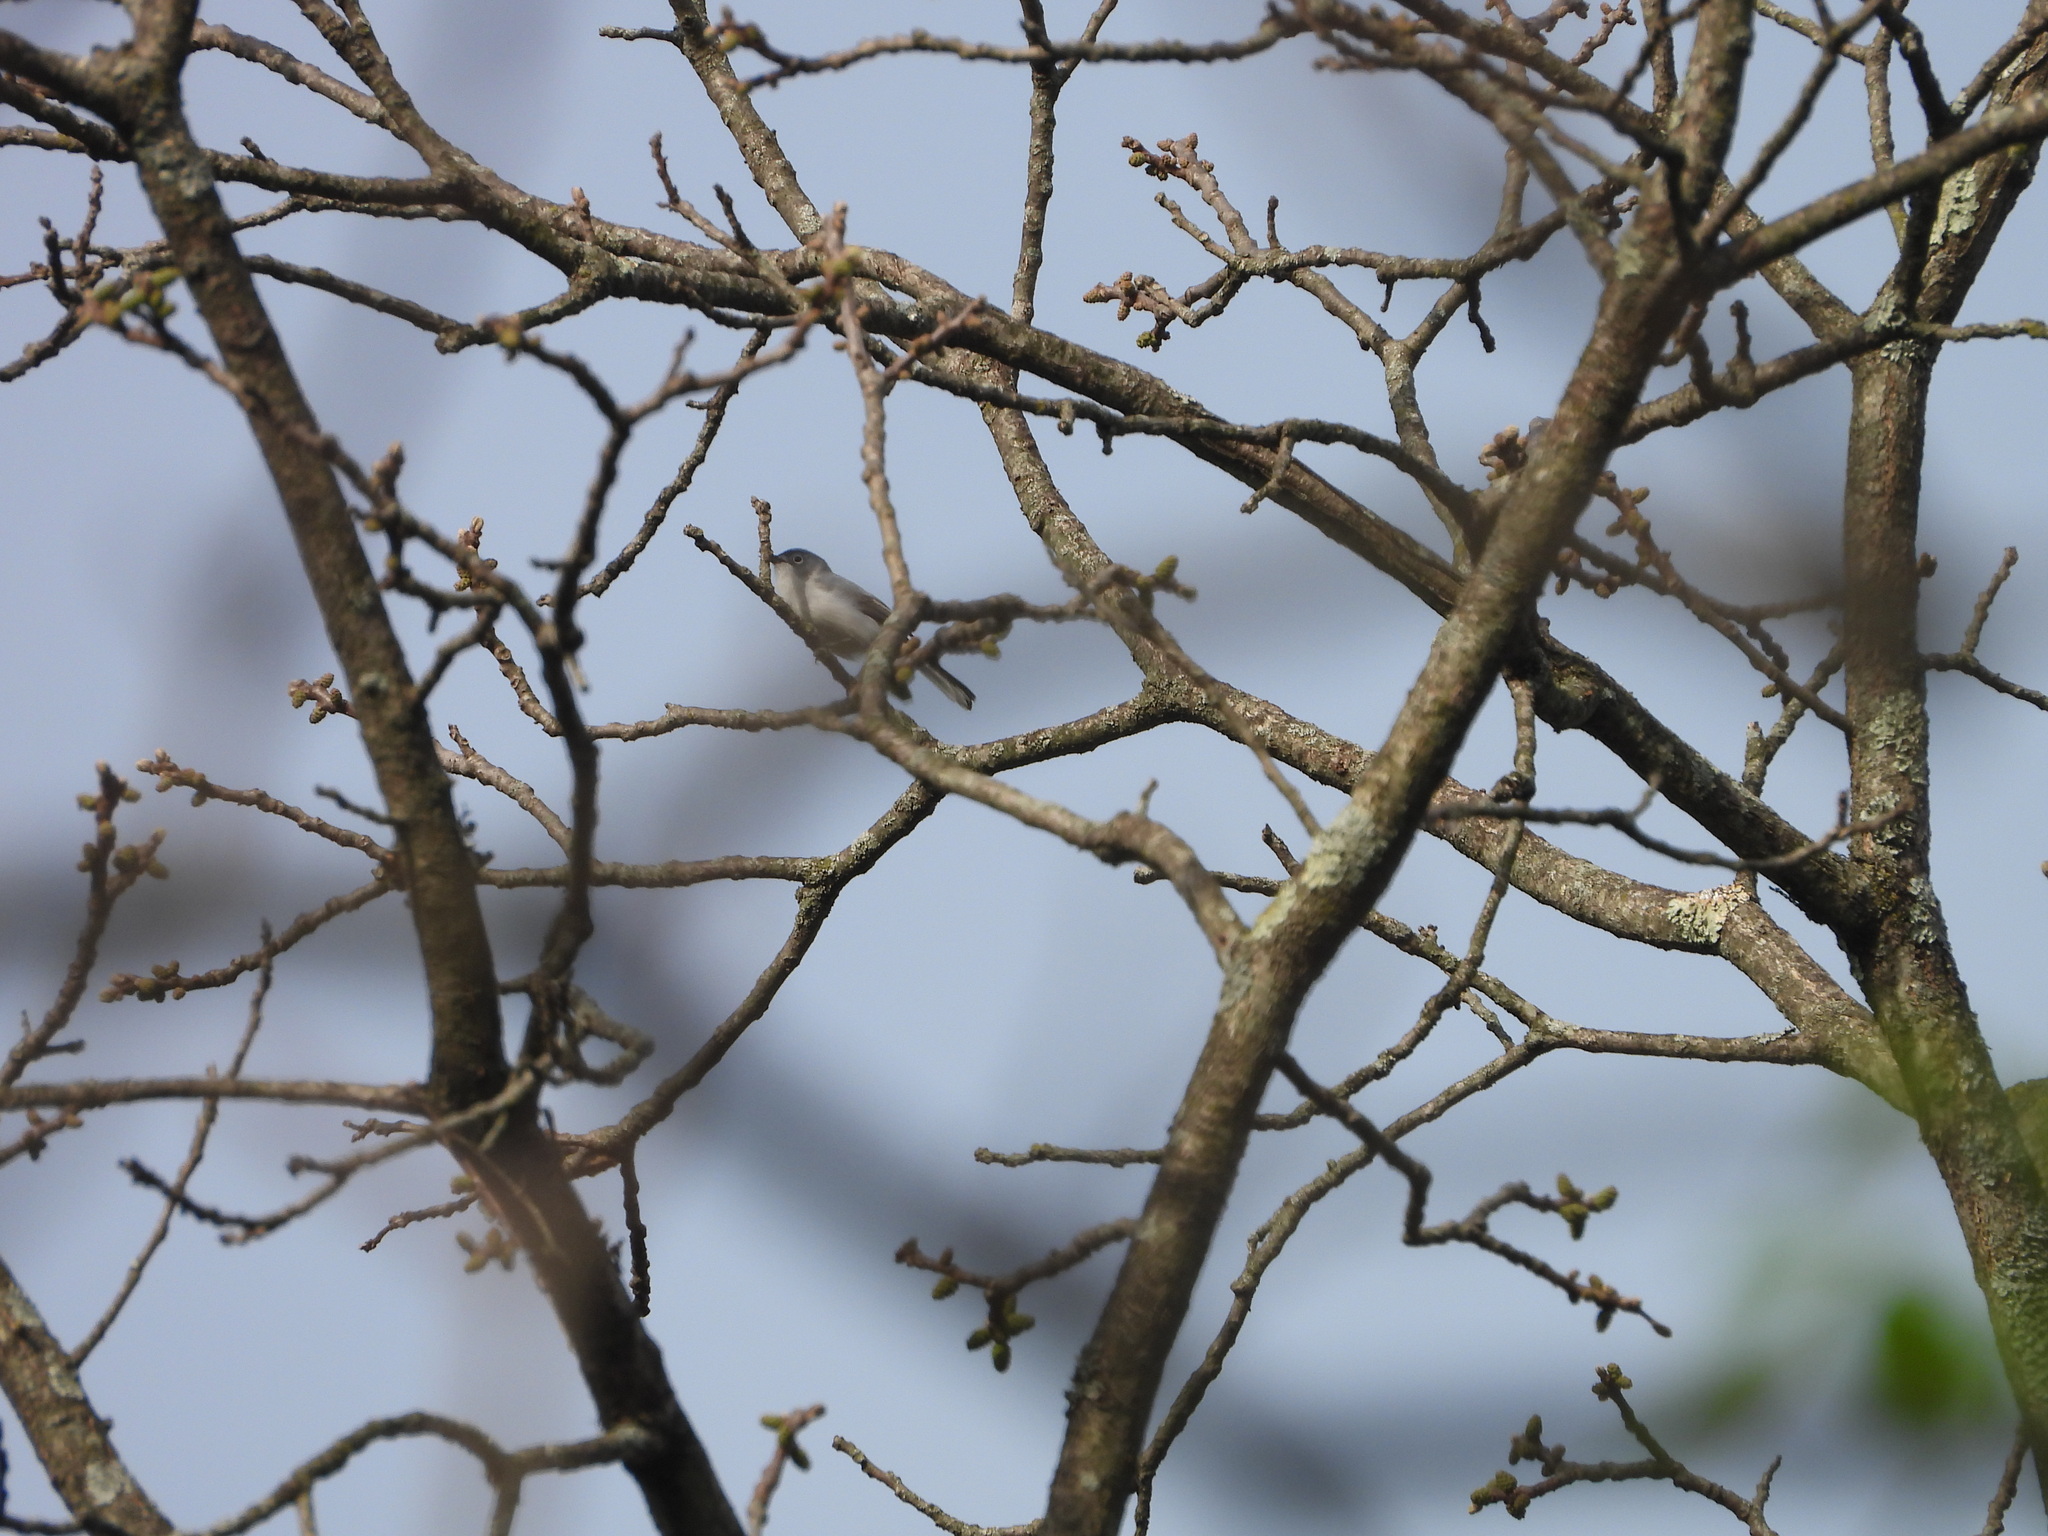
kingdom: Animalia
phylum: Chordata
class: Aves
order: Passeriformes
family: Polioptilidae
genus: Polioptila
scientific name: Polioptila caerulea
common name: Blue-gray gnatcatcher
